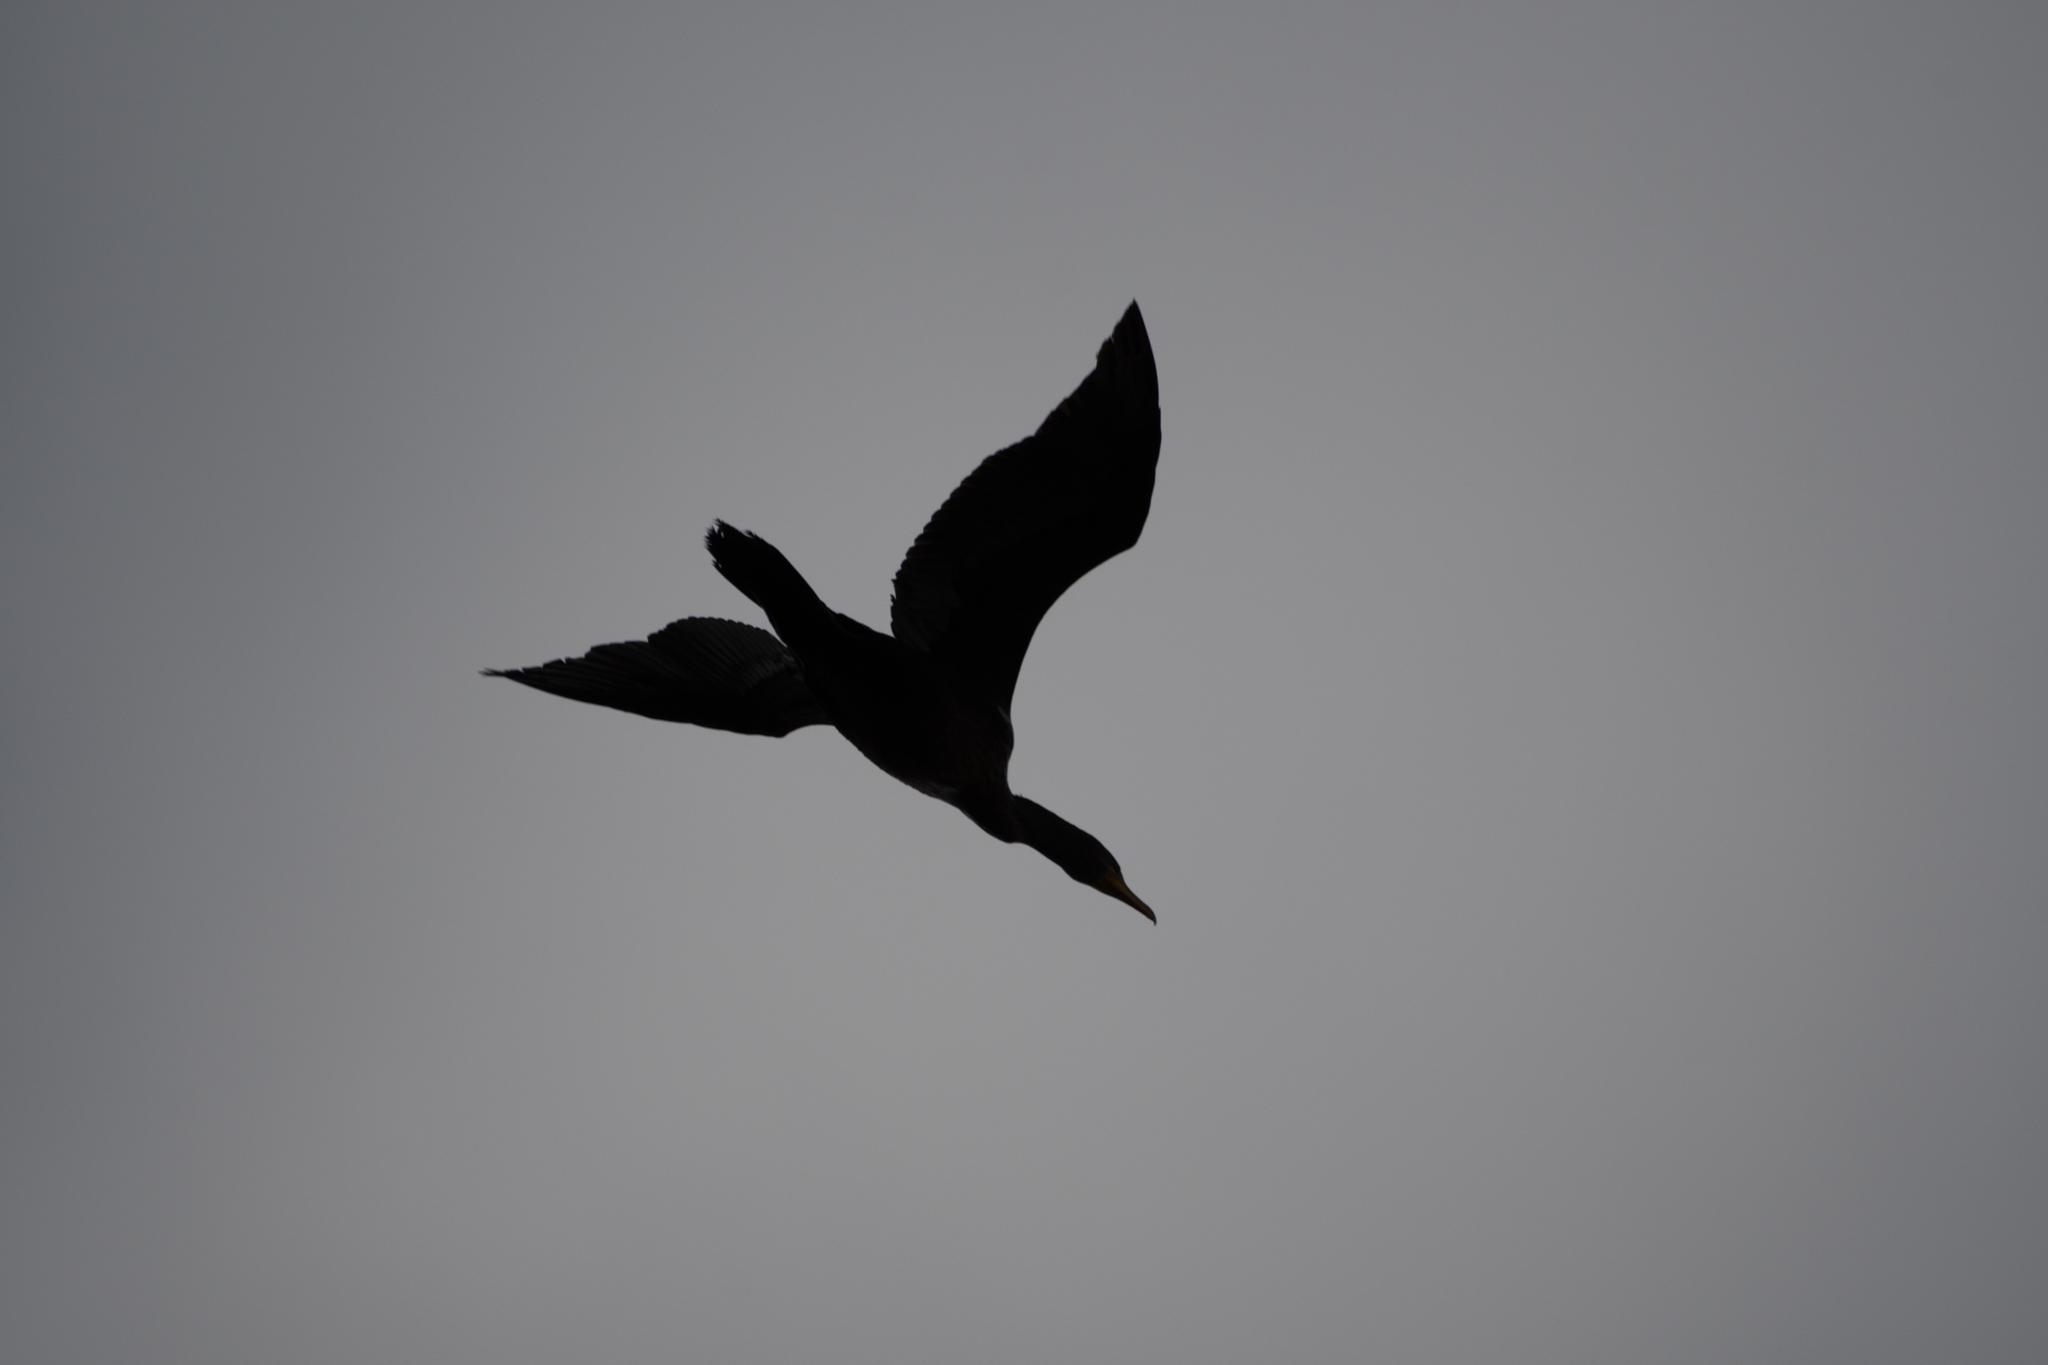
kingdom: Animalia
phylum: Chordata
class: Aves
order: Suliformes
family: Phalacrocoracidae
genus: Phalacrocorax
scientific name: Phalacrocorax auritus
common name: Double-crested cormorant
